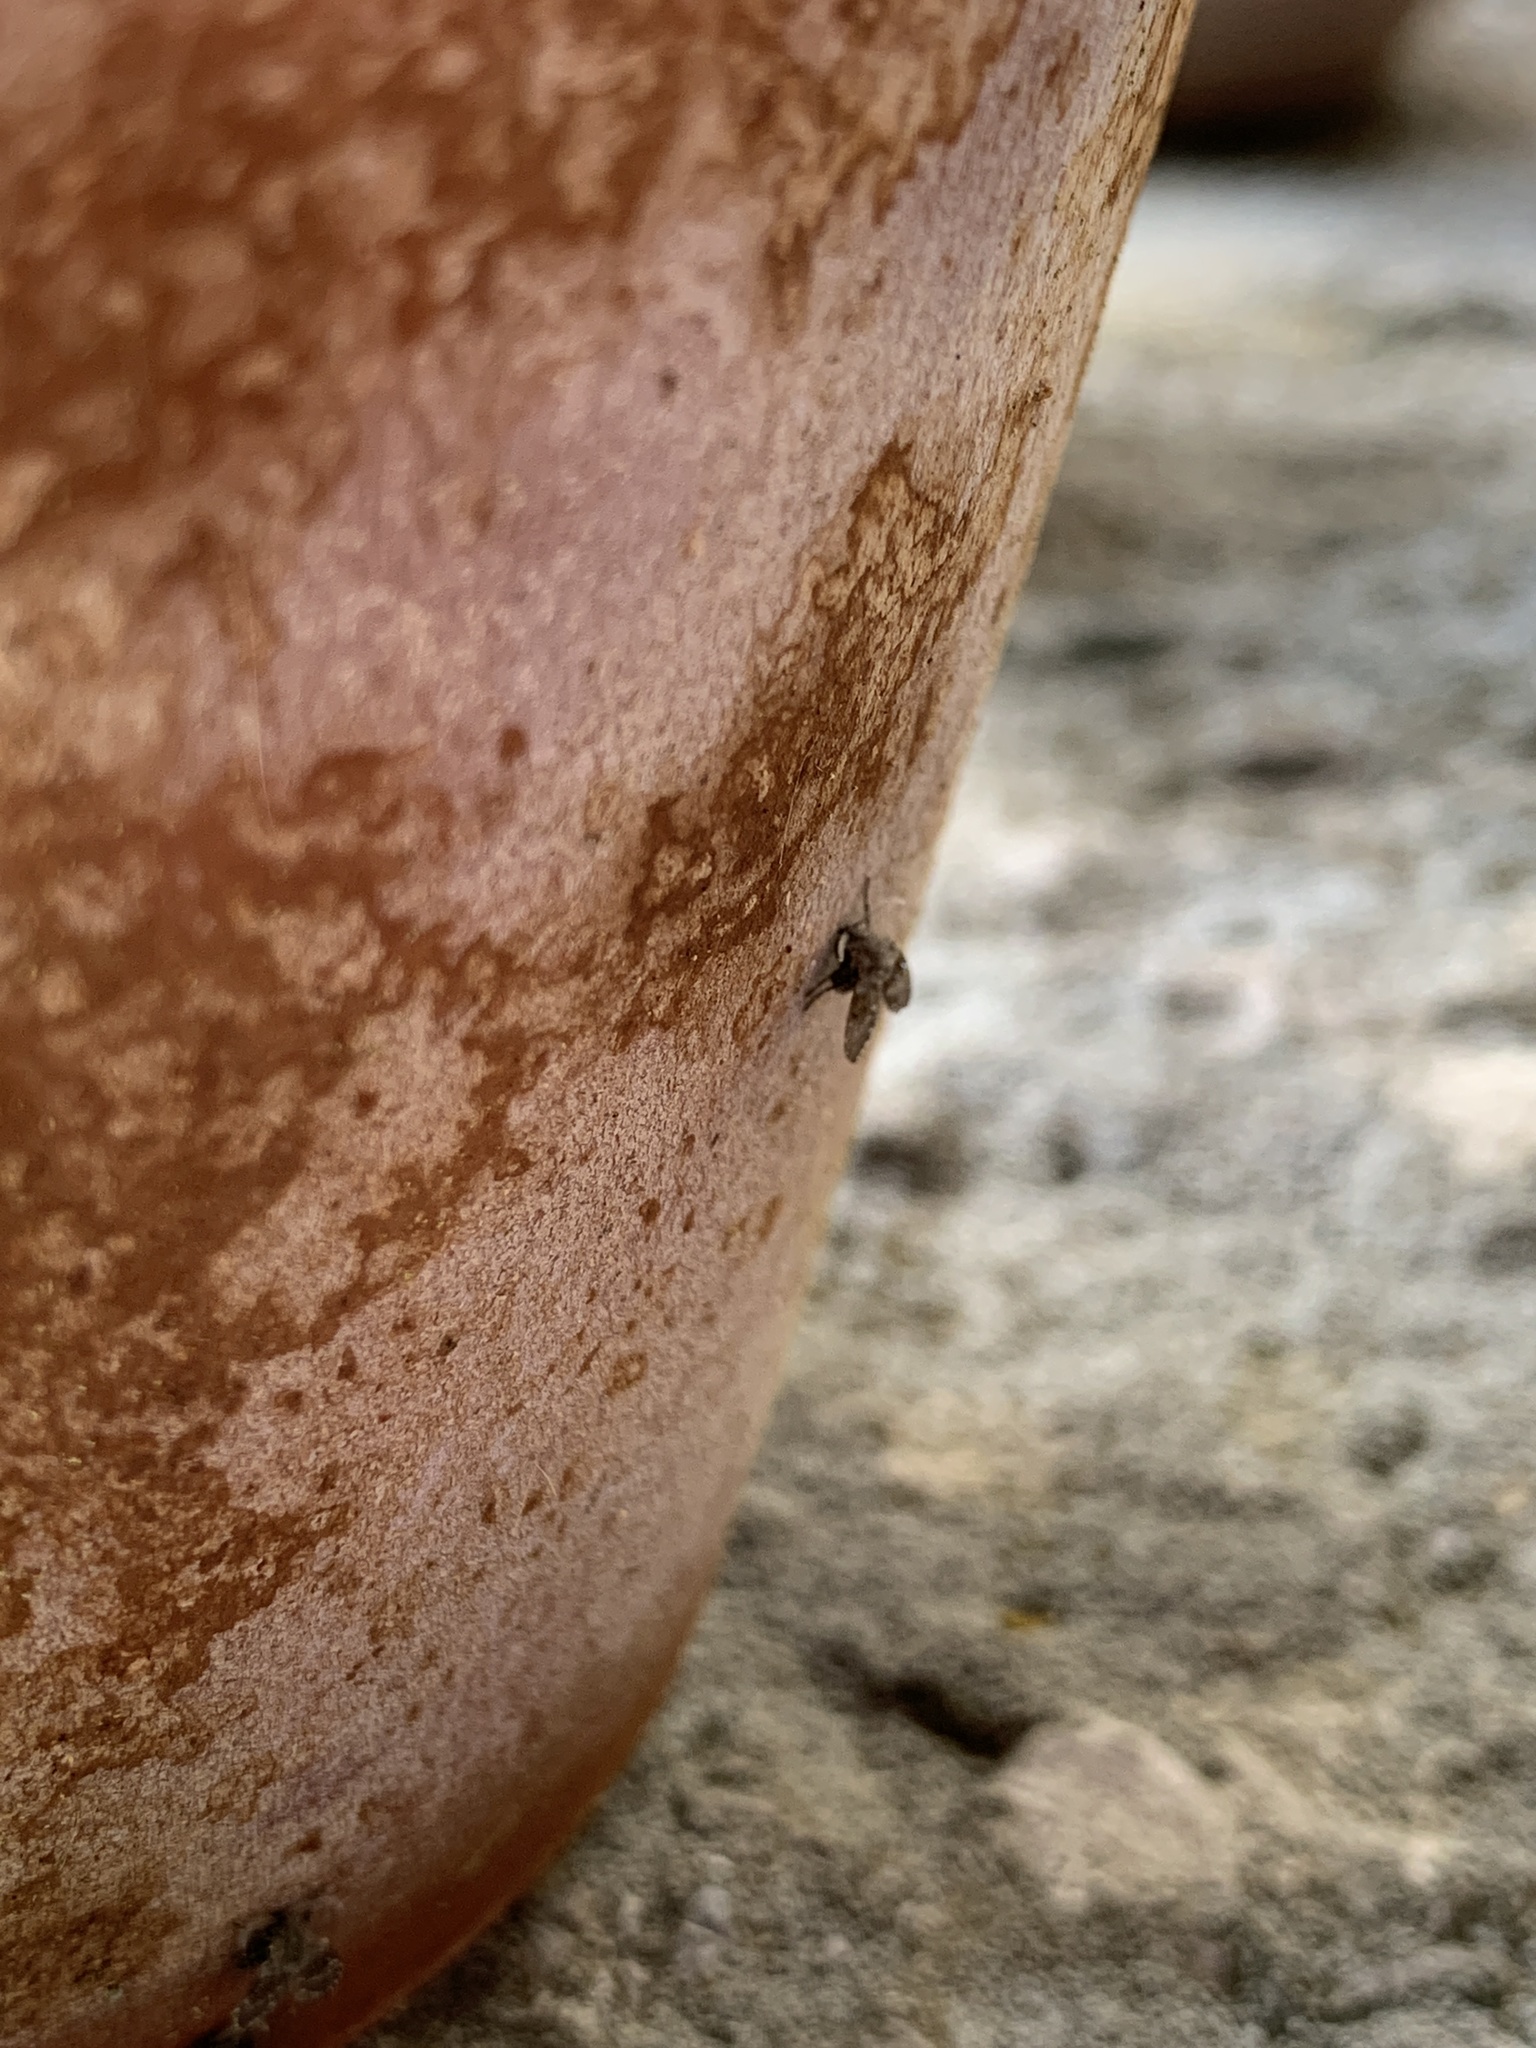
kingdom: Animalia
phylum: Arthropoda
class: Insecta
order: Diptera
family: Psychodidae
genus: Clogmia
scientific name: Clogmia albipunctatus
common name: White-spotted moth fly
